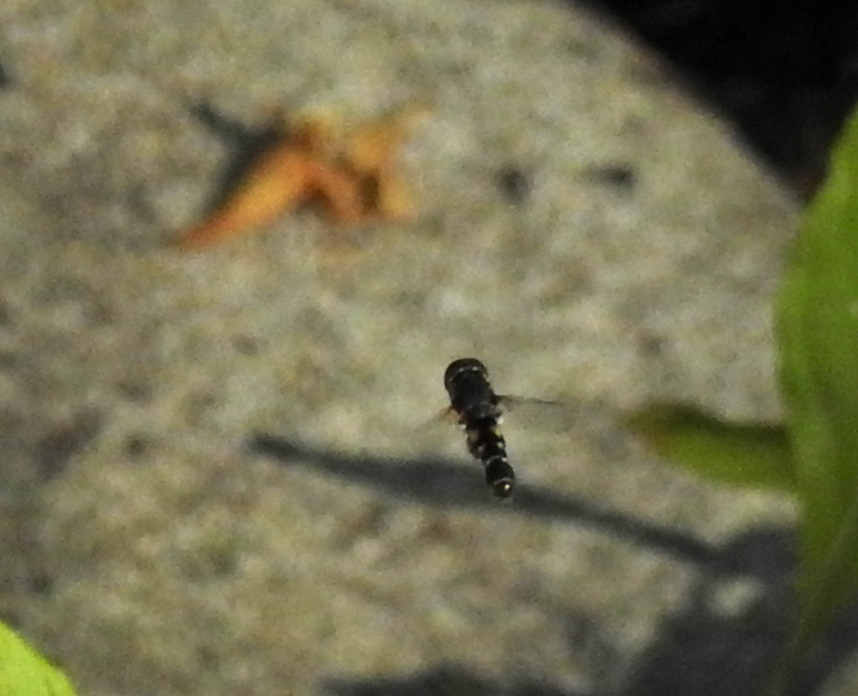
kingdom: Animalia
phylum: Arthropoda
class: Insecta
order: Diptera
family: Syrphidae
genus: Syritta
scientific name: Syritta pipiens
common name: Hover fly
